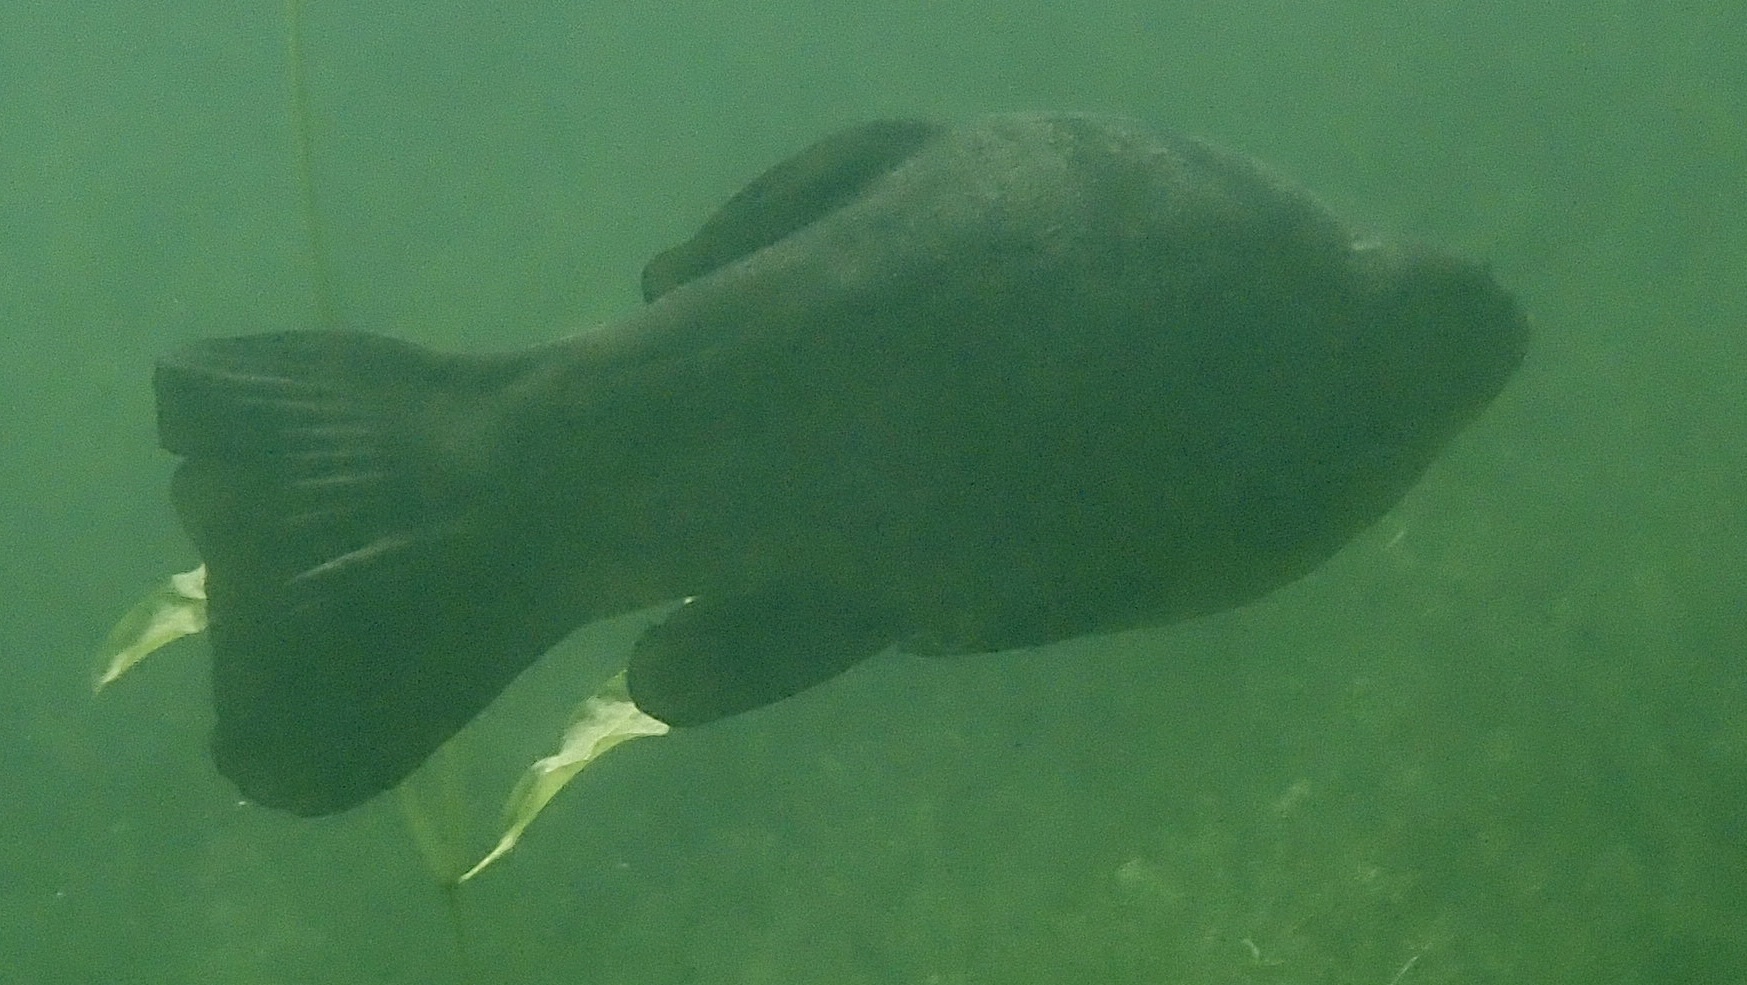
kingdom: Animalia
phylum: Chordata
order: Cypriniformes
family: Cyprinidae
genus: Tinca
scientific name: Tinca tinca
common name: Tench
